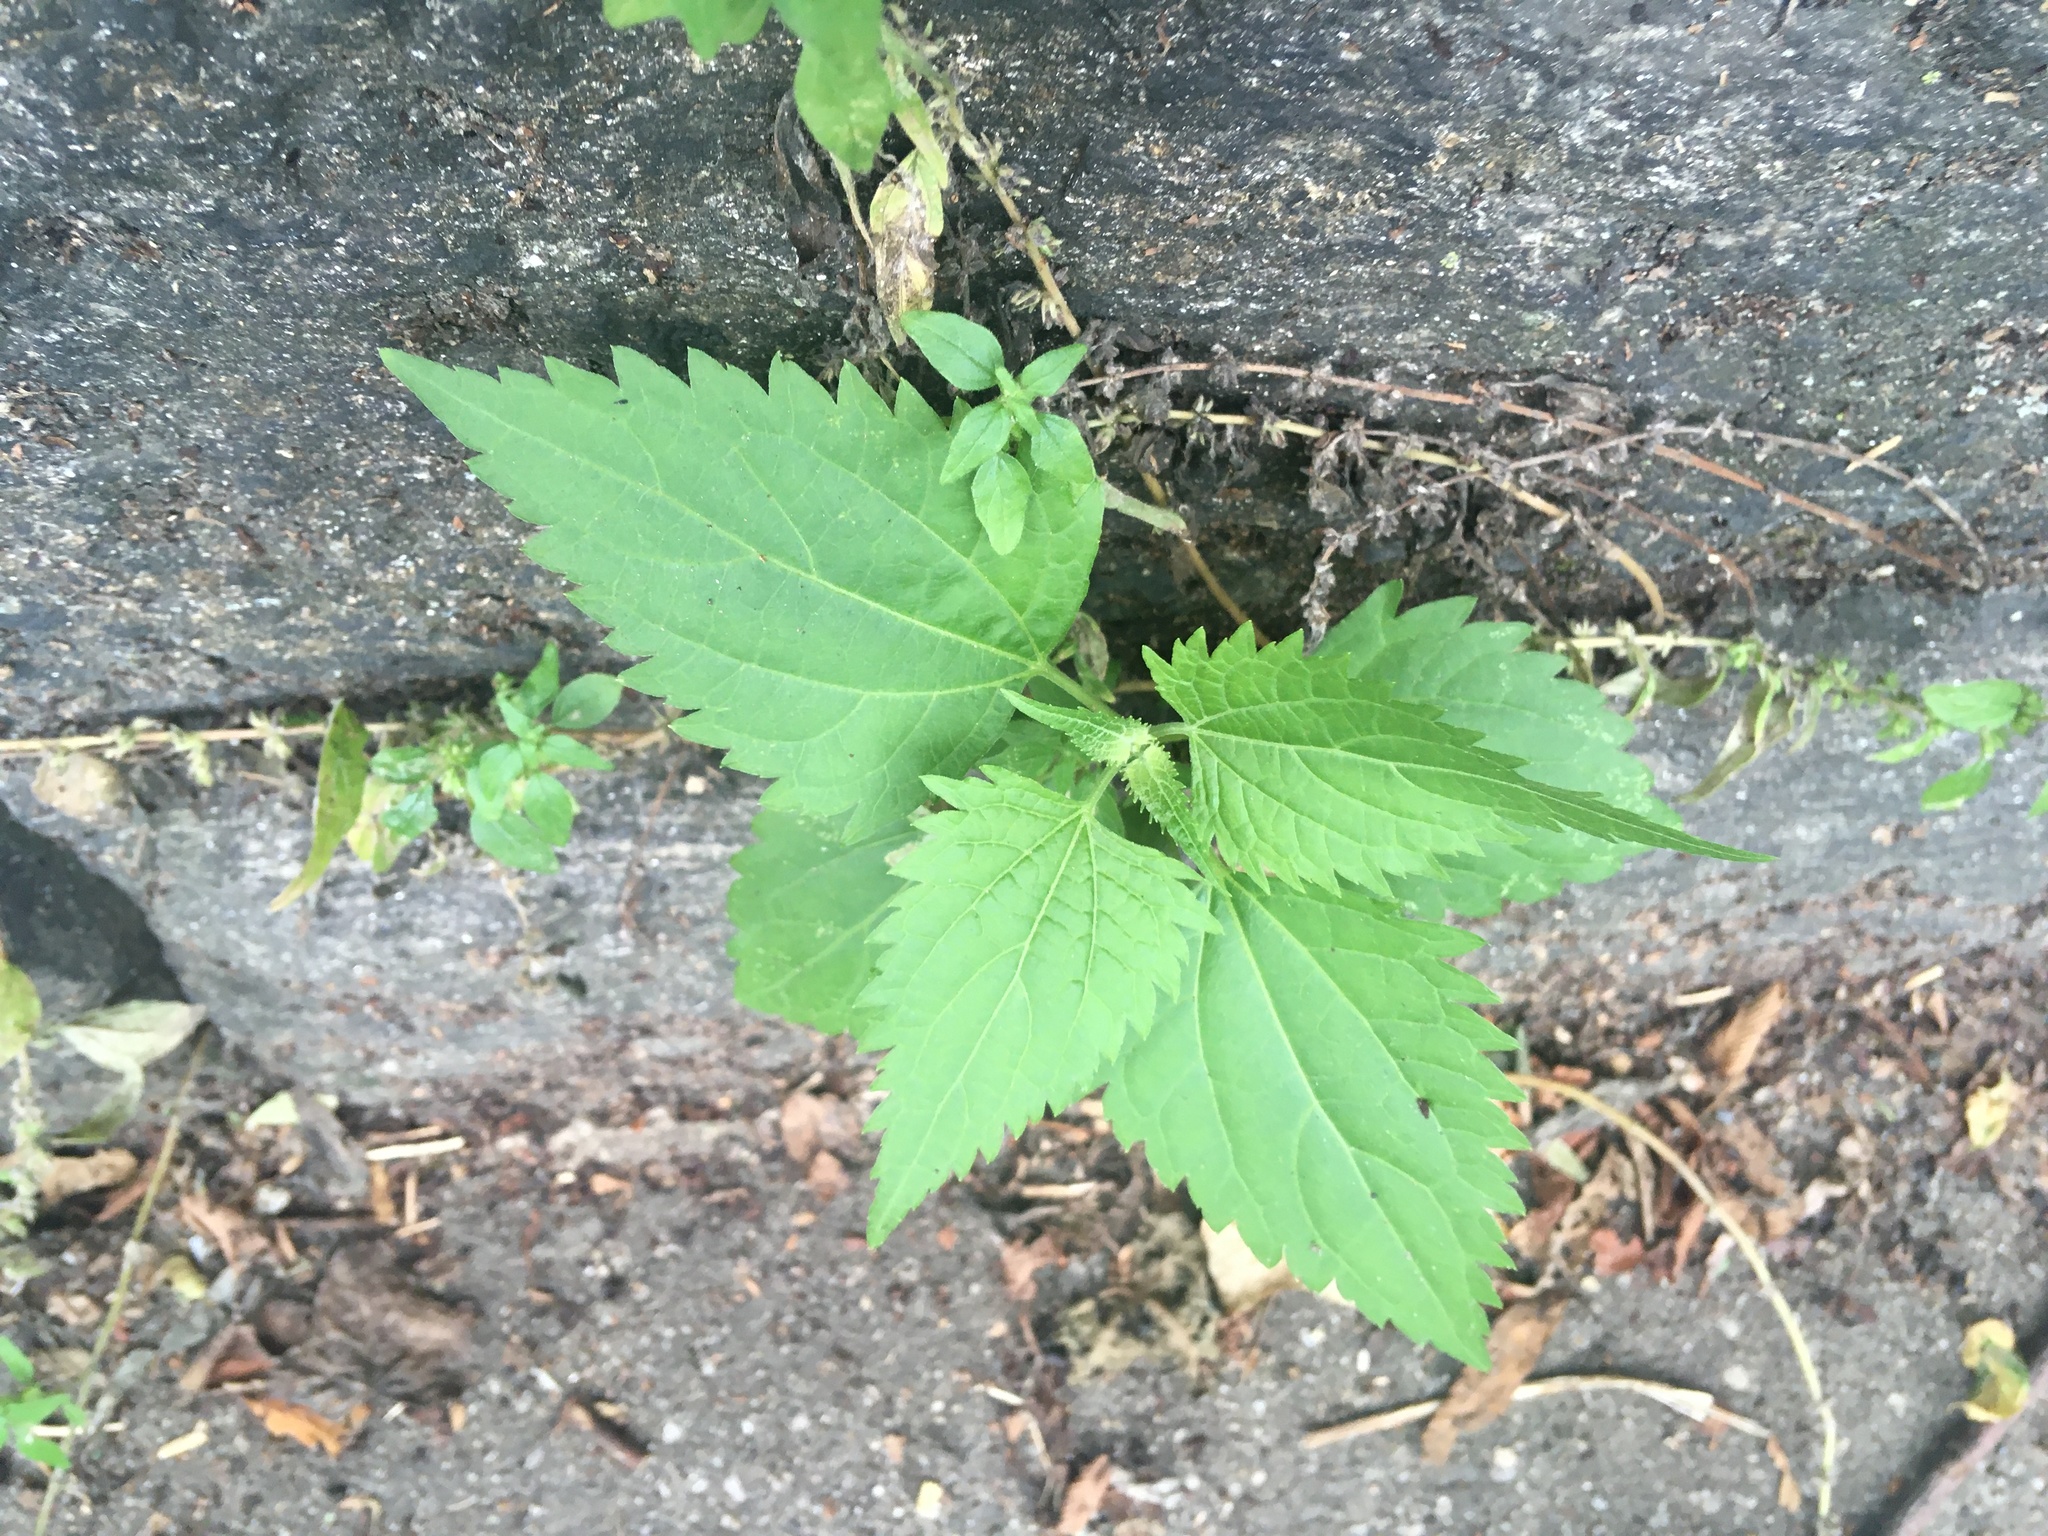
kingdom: Plantae
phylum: Tracheophyta
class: Magnoliopsida
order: Asterales
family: Asteraceae
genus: Ageratina
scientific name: Ageratina altissima
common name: White snakeroot
